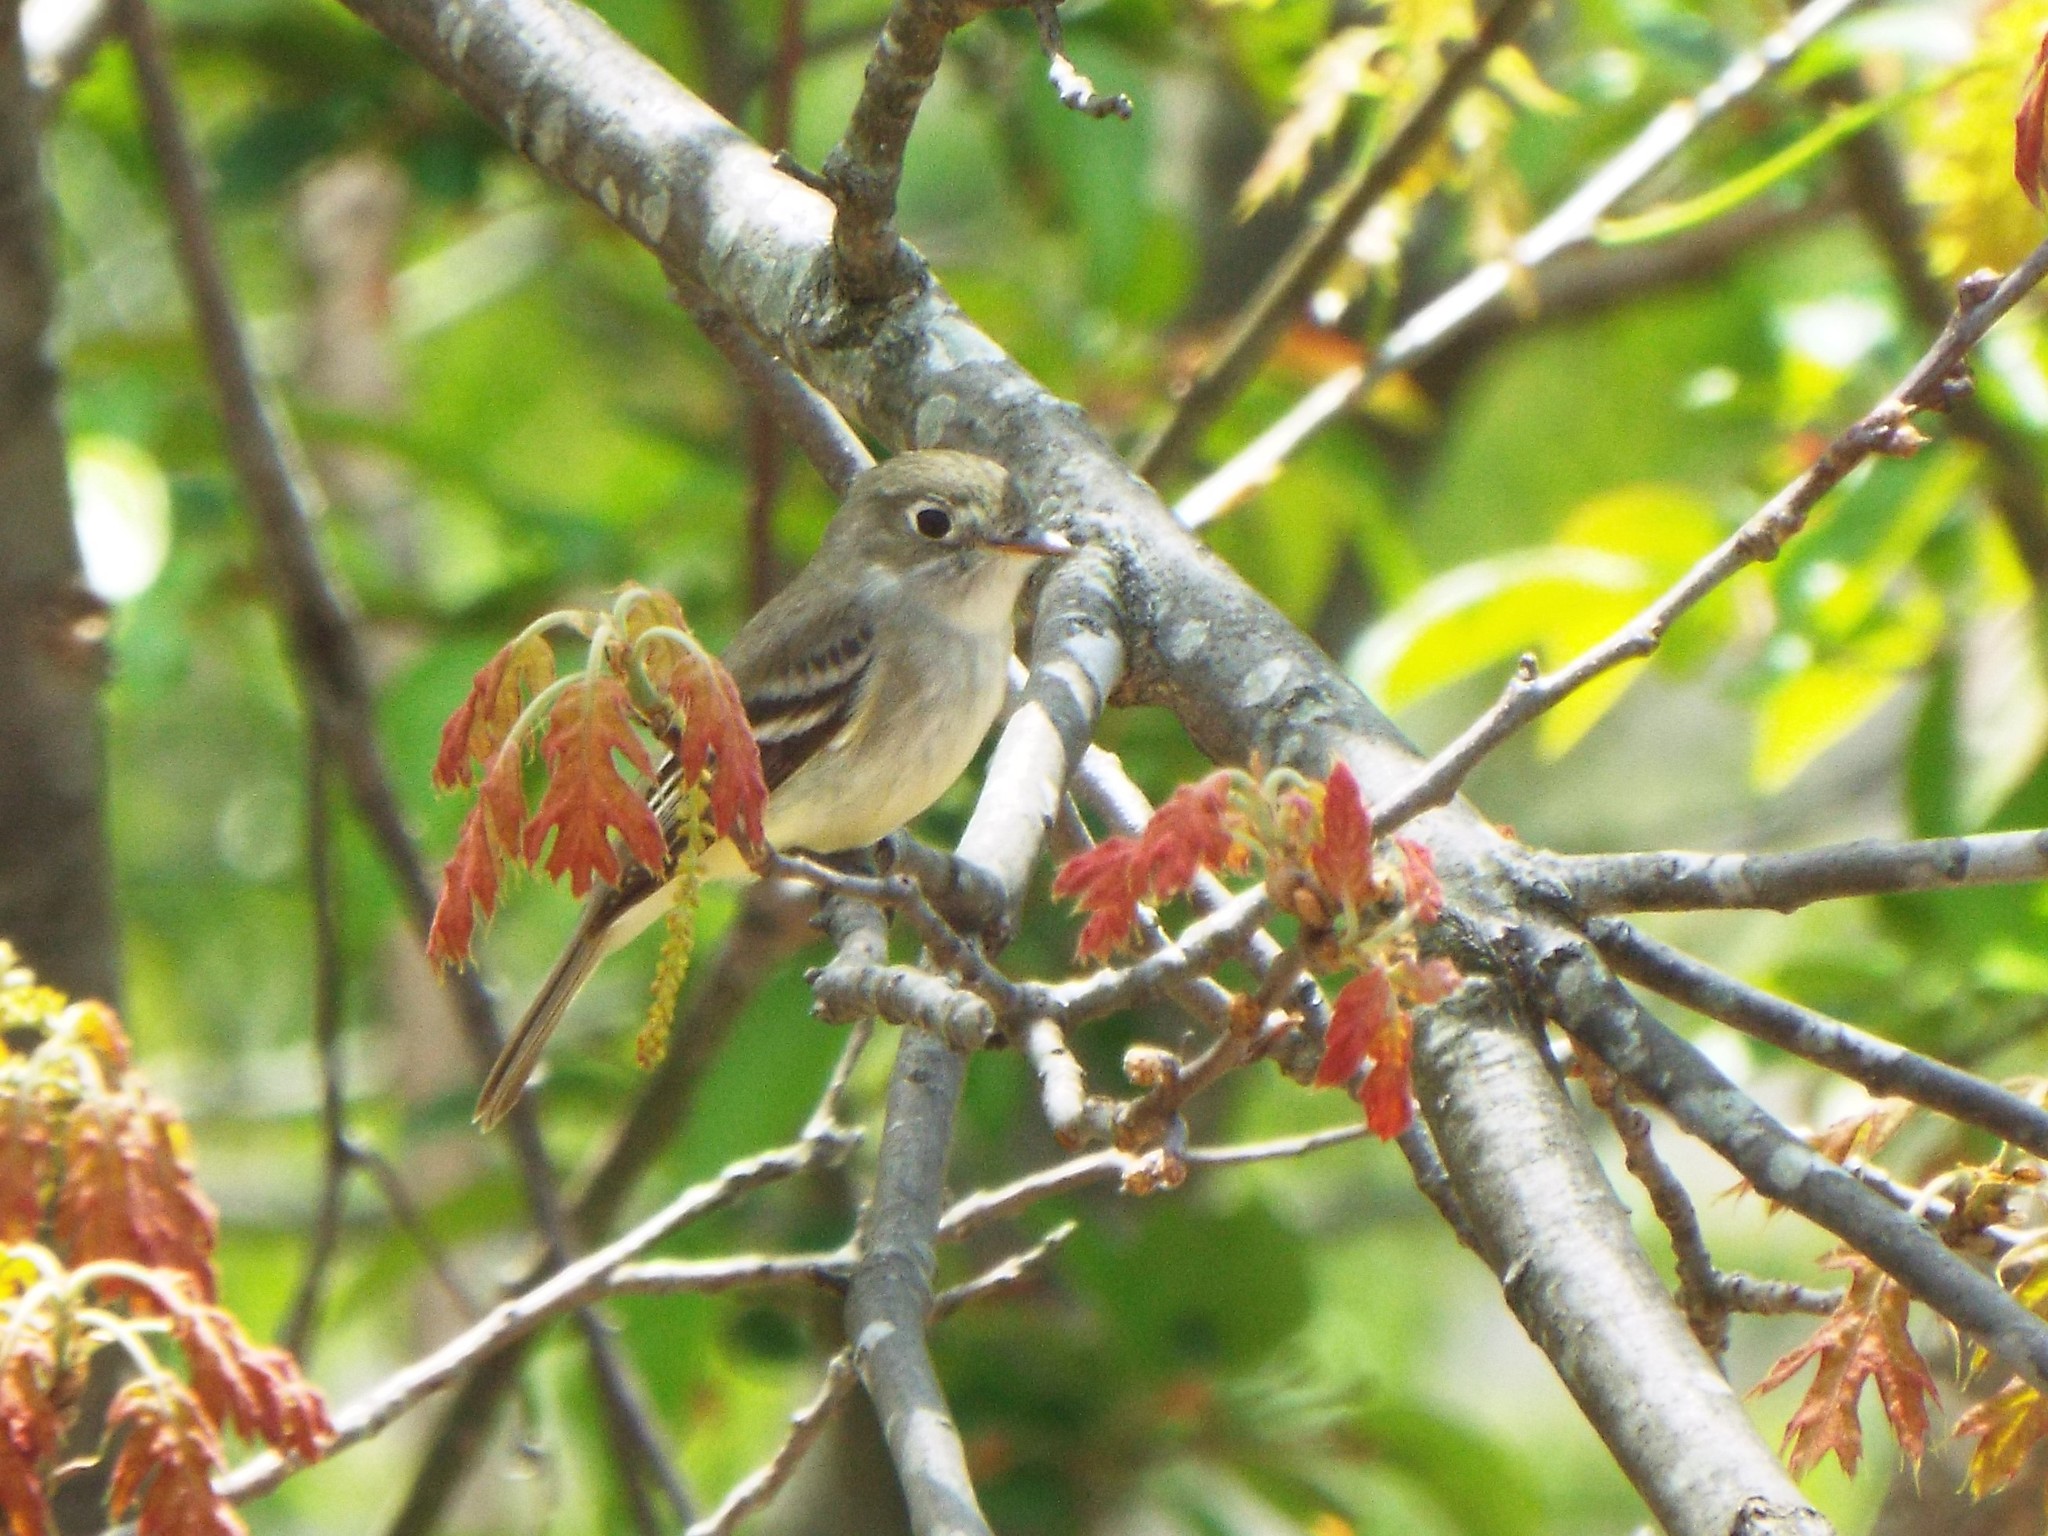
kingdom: Animalia
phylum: Chordata
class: Aves
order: Passeriformes
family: Tyrannidae
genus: Empidonax
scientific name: Empidonax minimus
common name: Least flycatcher
